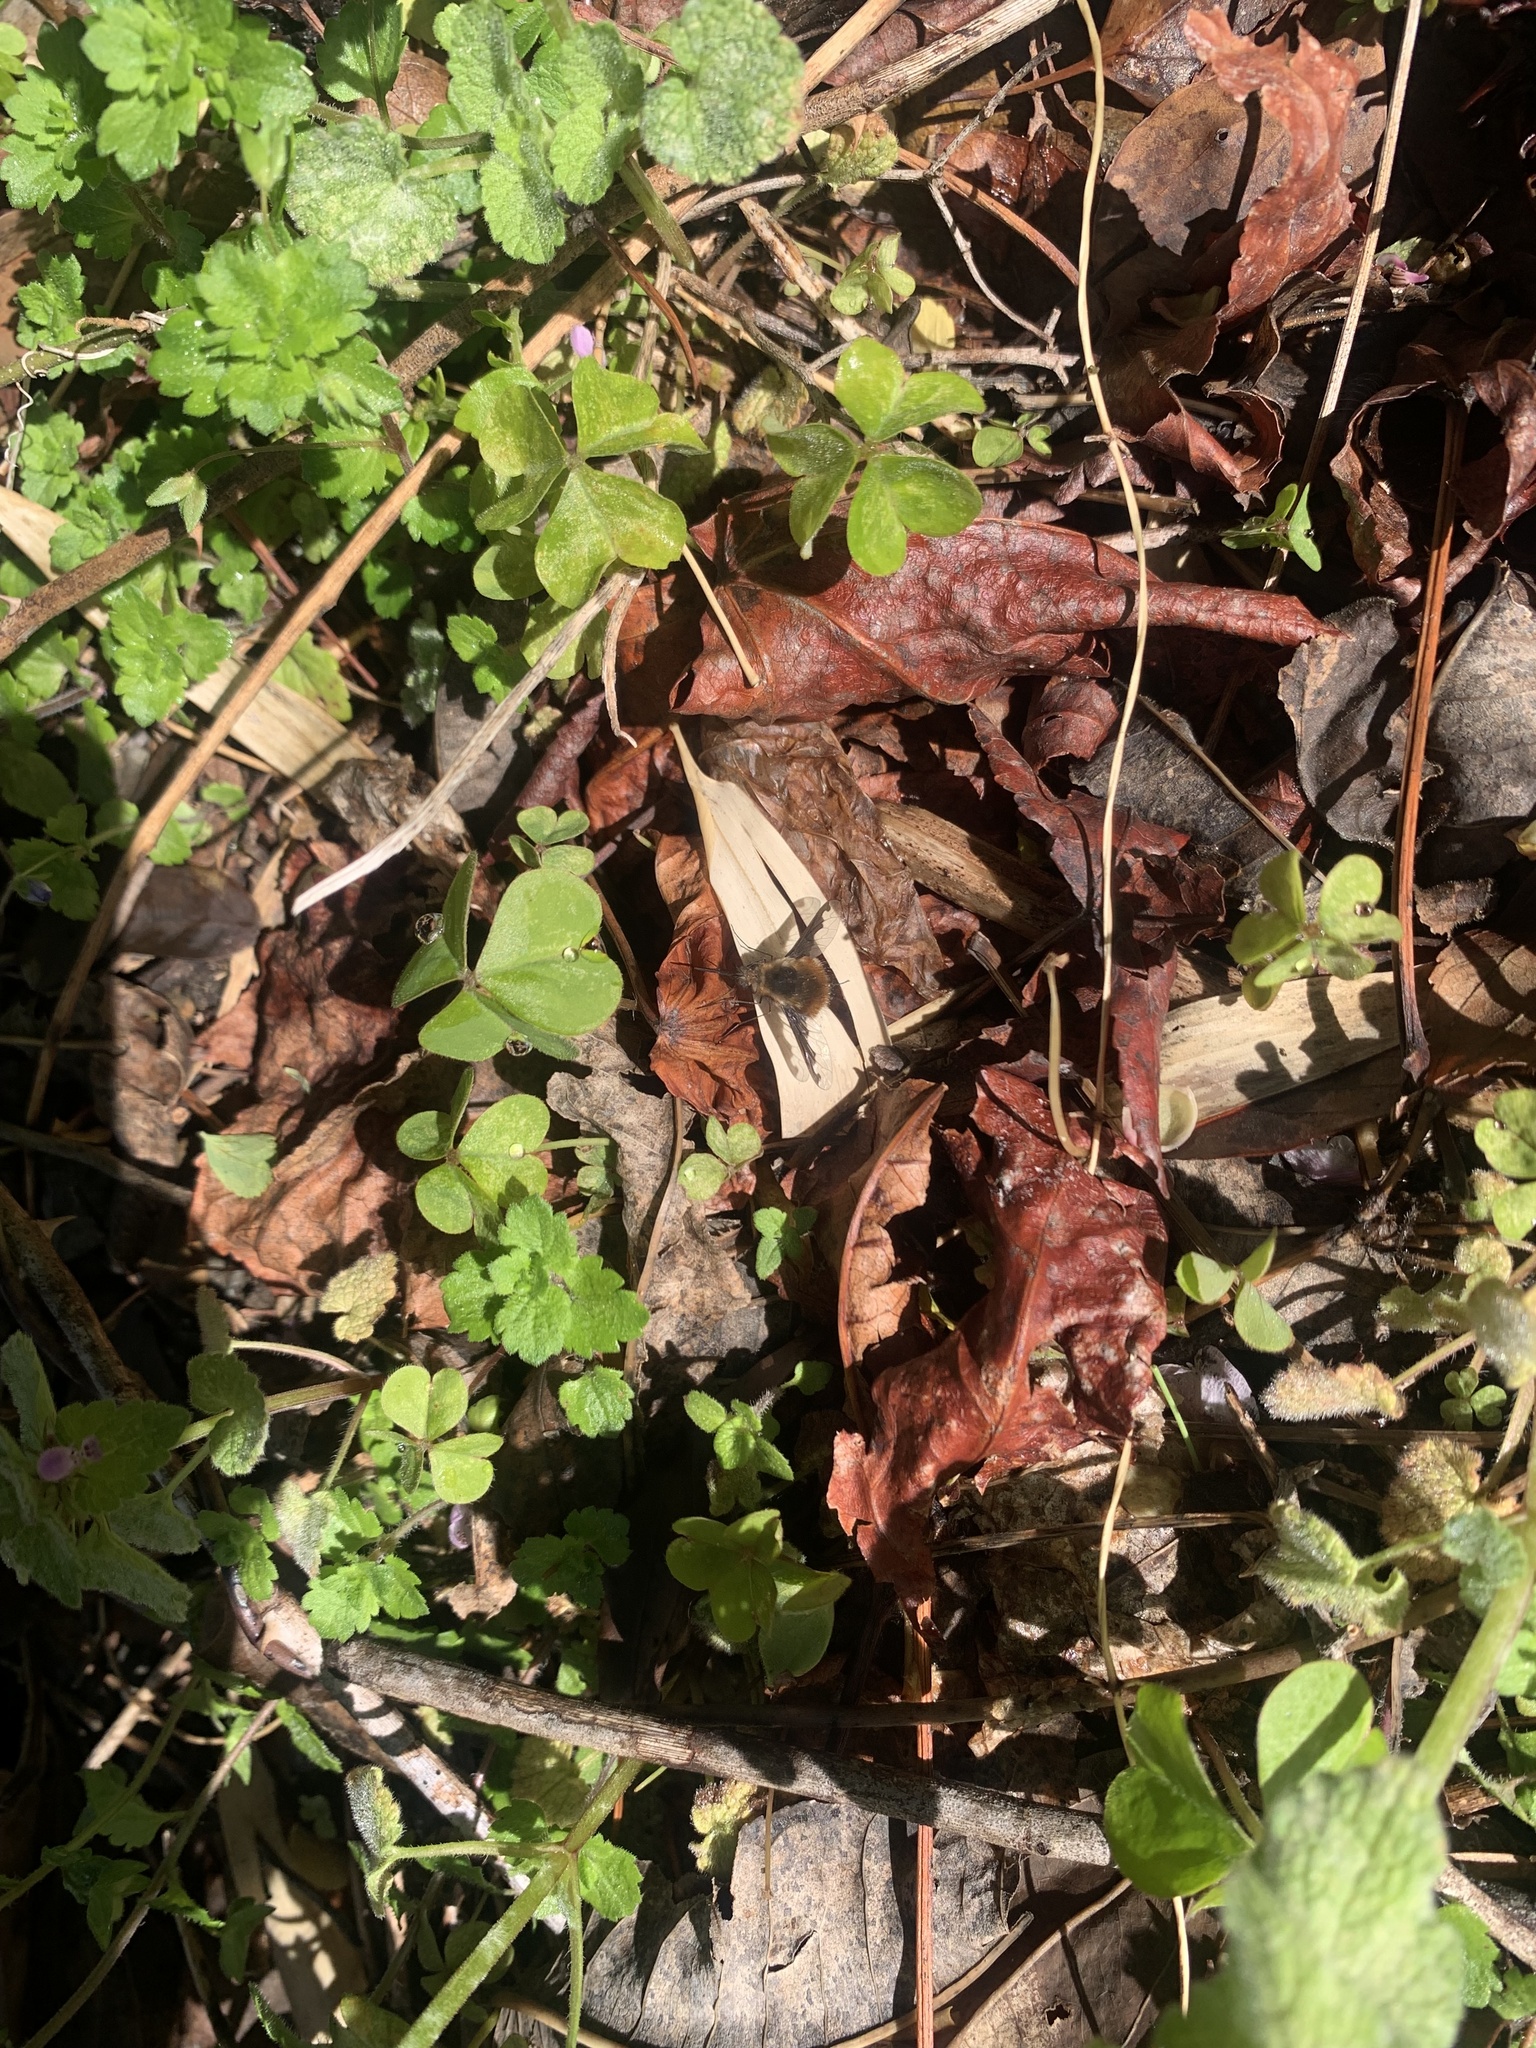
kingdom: Animalia
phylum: Arthropoda
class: Insecta
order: Diptera
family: Bombyliidae
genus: Bombylius
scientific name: Bombylius major
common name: Bee fly
